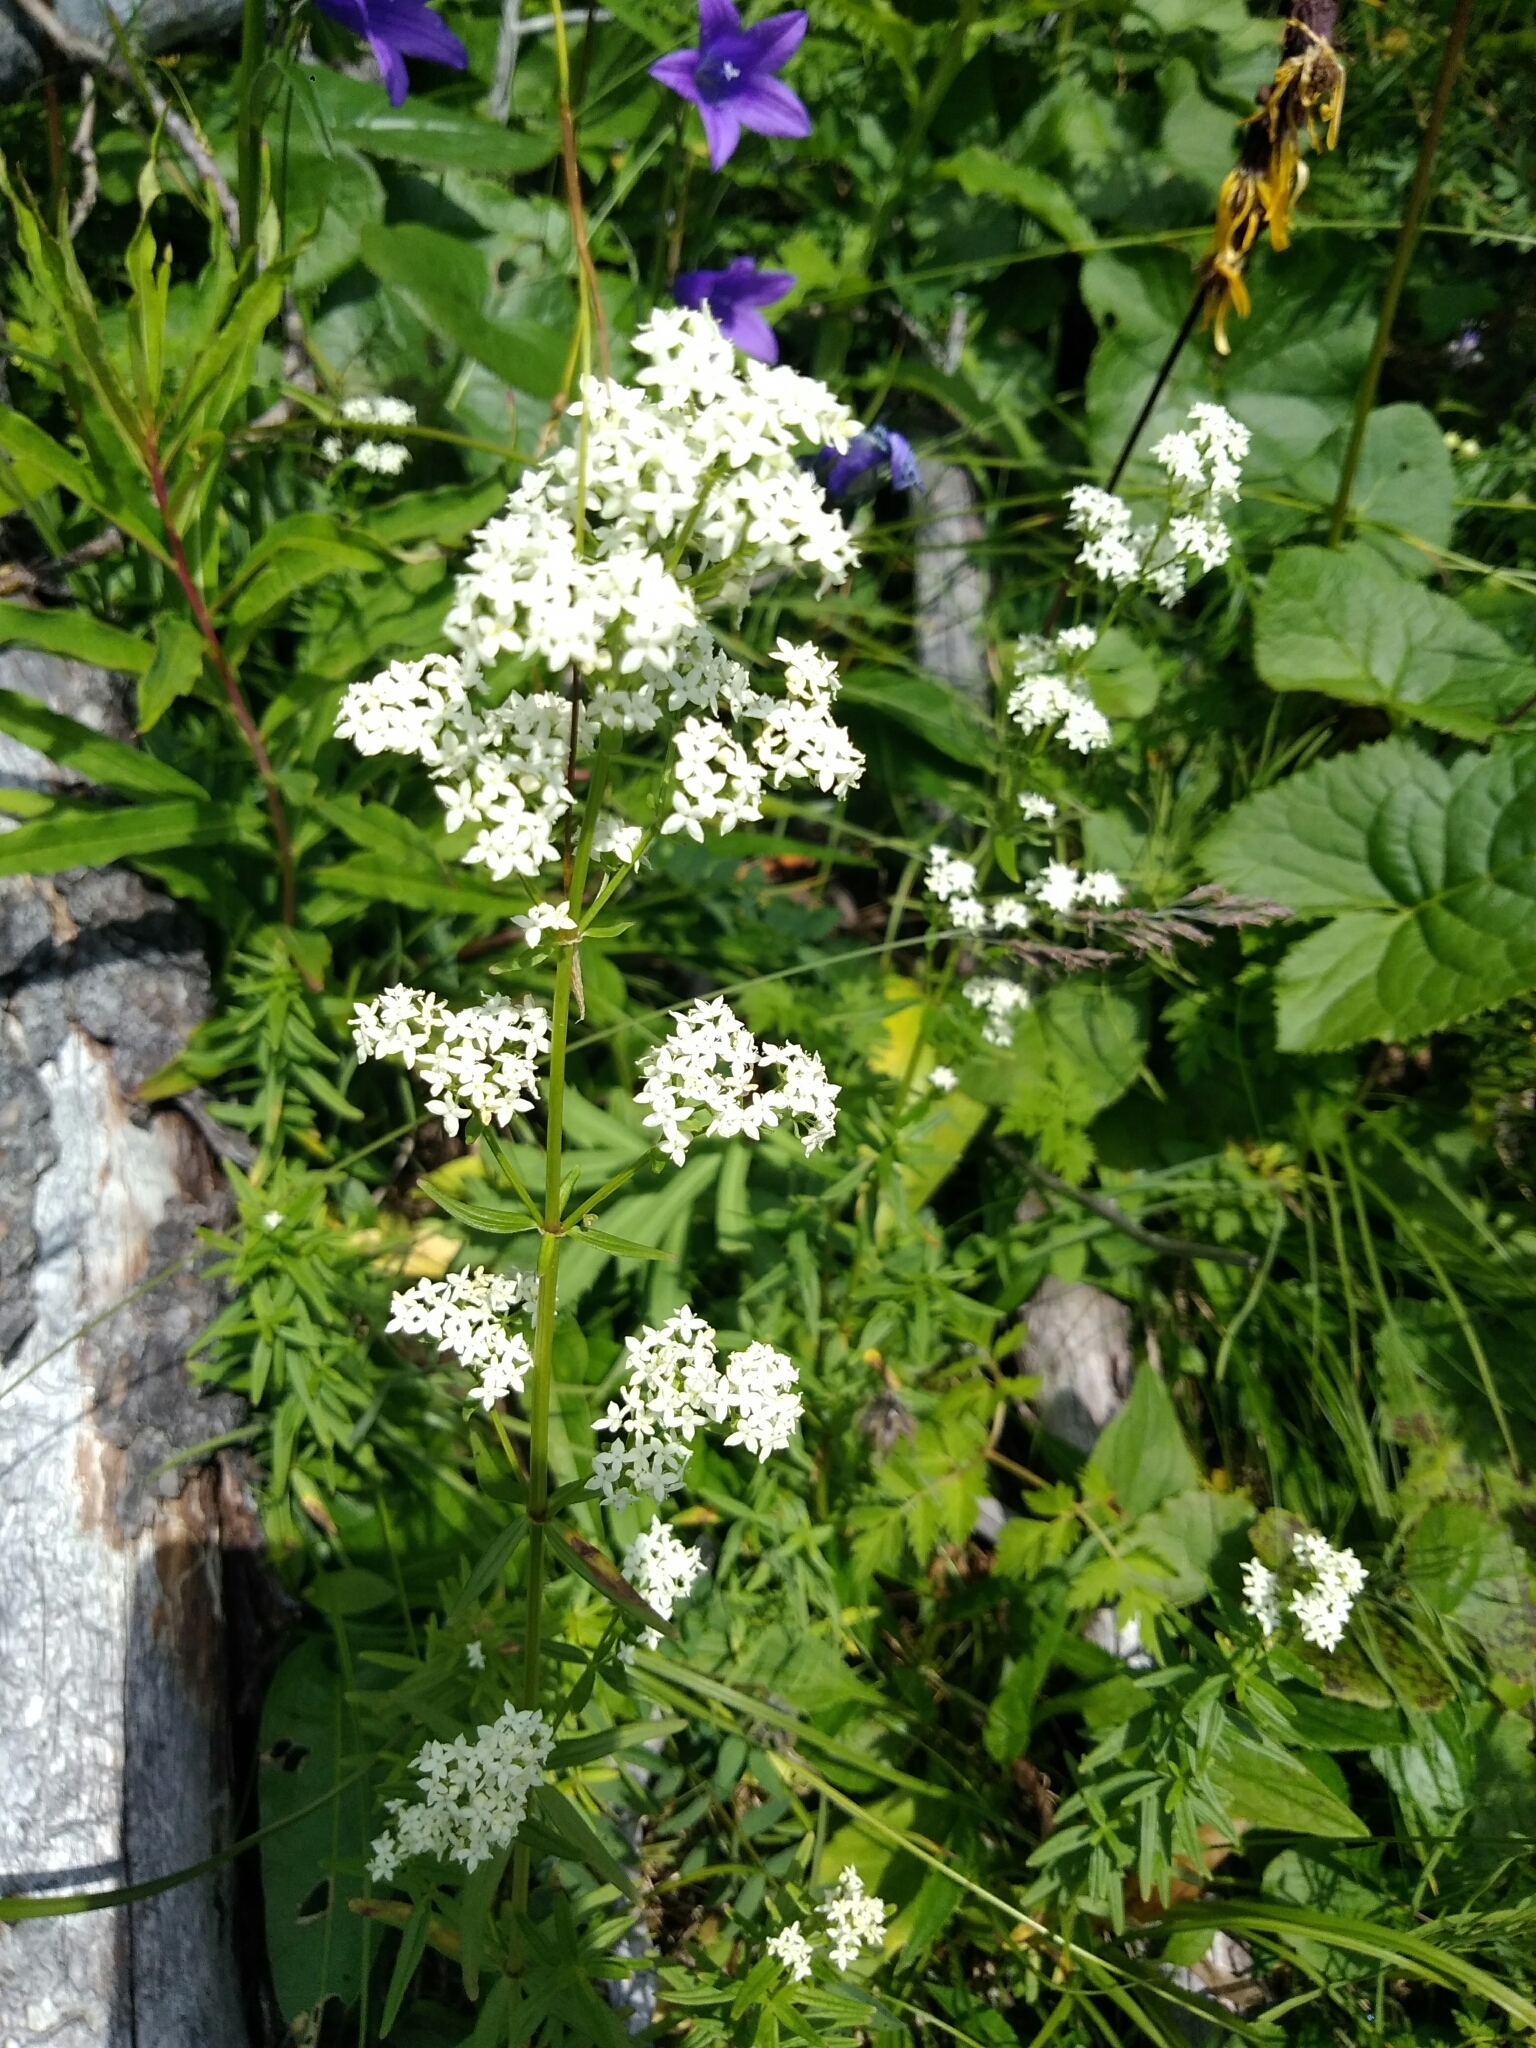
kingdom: Plantae
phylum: Tracheophyta
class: Magnoliopsida
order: Gentianales
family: Rubiaceae
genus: Galium
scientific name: Galium boreale
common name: Northern bedstraw
